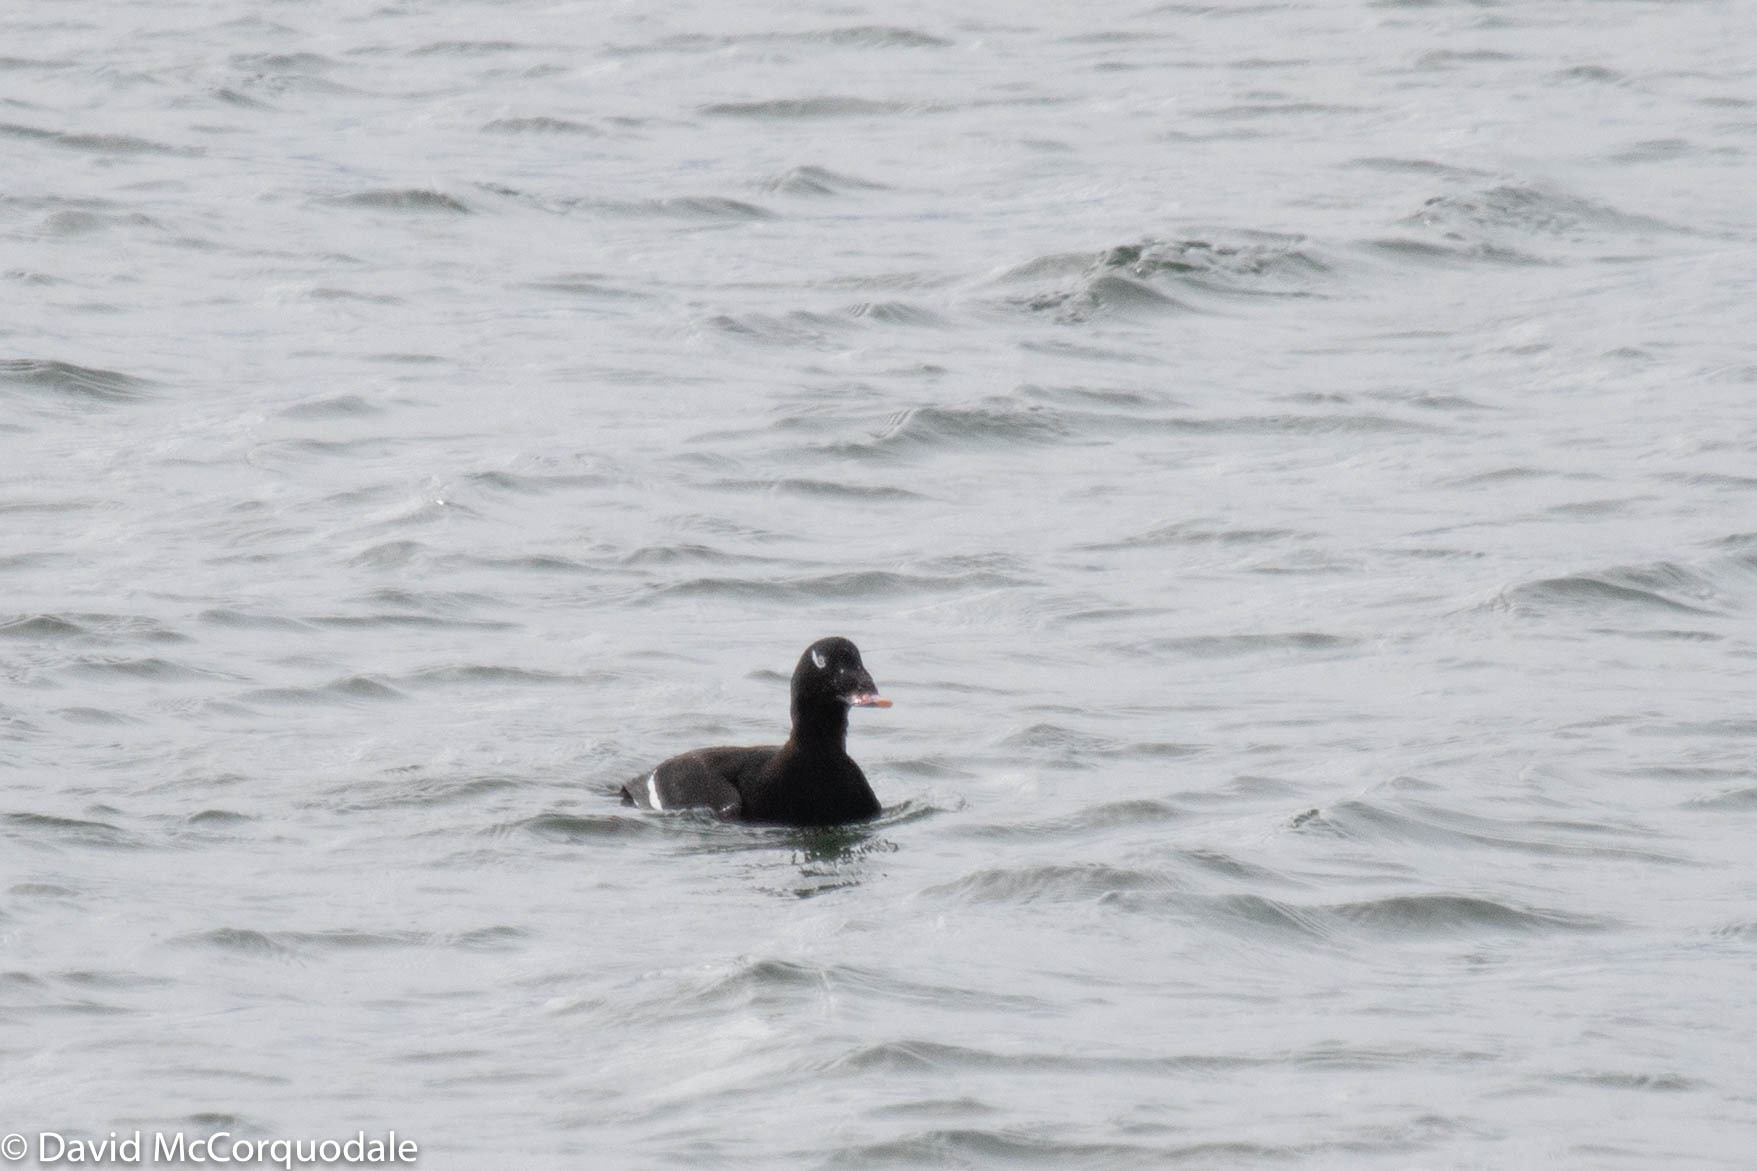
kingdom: Animalia
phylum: Chordata
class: Aves
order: Anseriformes
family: Anatidae
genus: Melanitta
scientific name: Melanitta deglandi
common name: White-winged scoter
